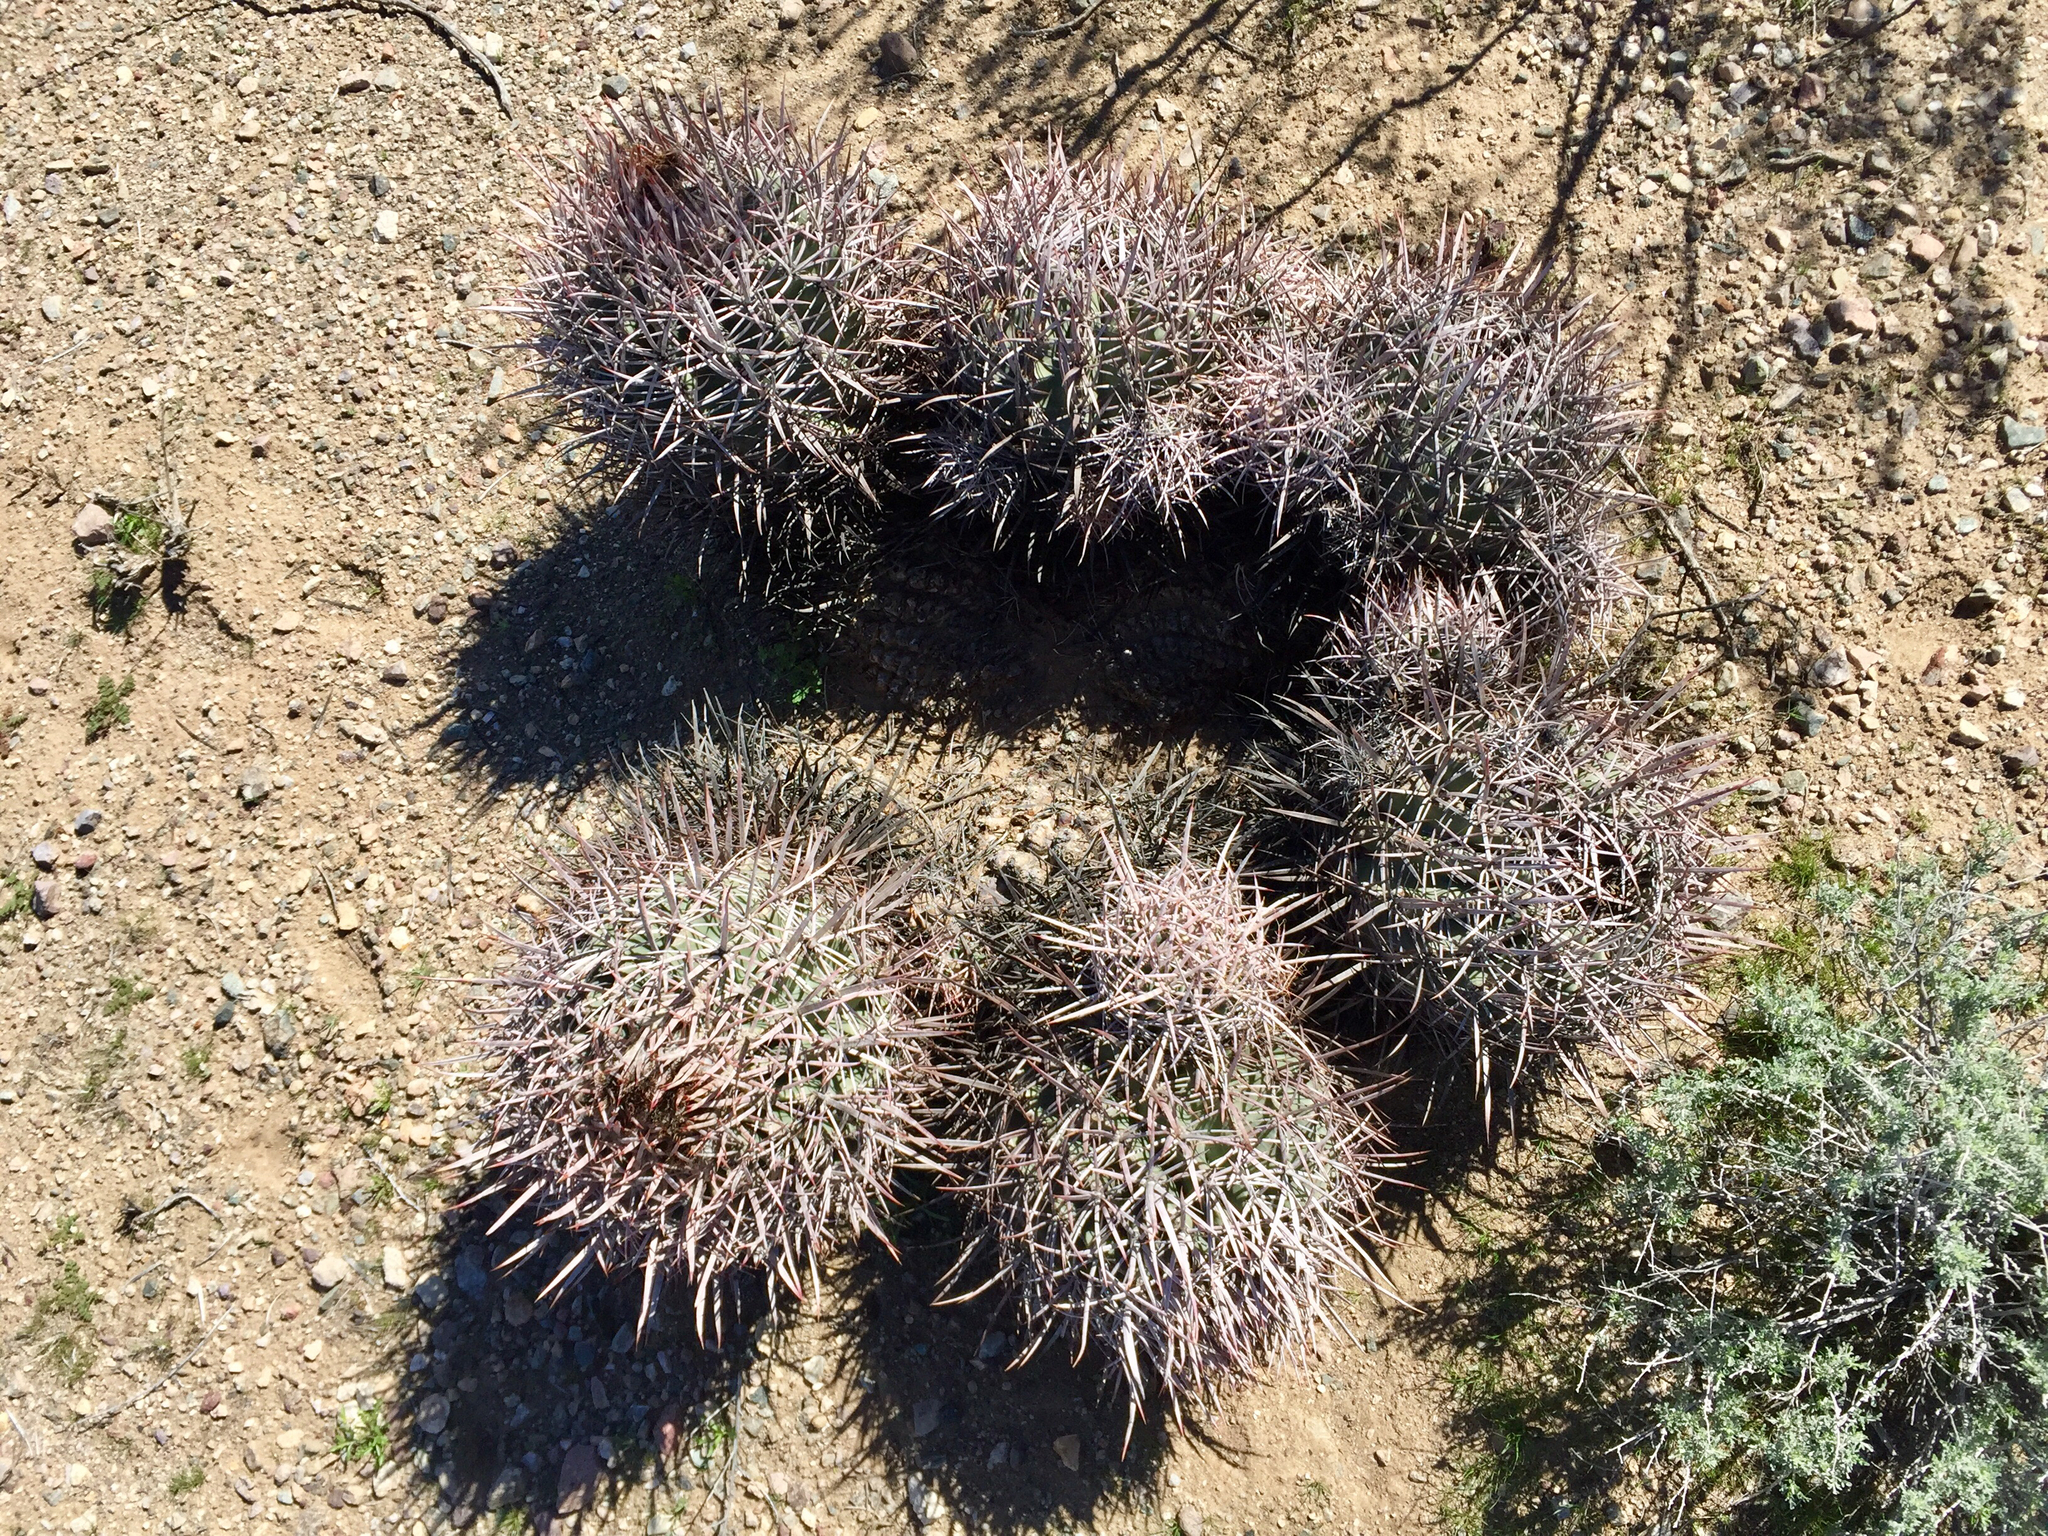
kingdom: Plantae
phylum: Tracheophyta
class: Magnoliopsida
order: Caryophyllales
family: Cactaceae
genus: Echinocactus
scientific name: Echinocactus polycephalus
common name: Cottontop cactus
